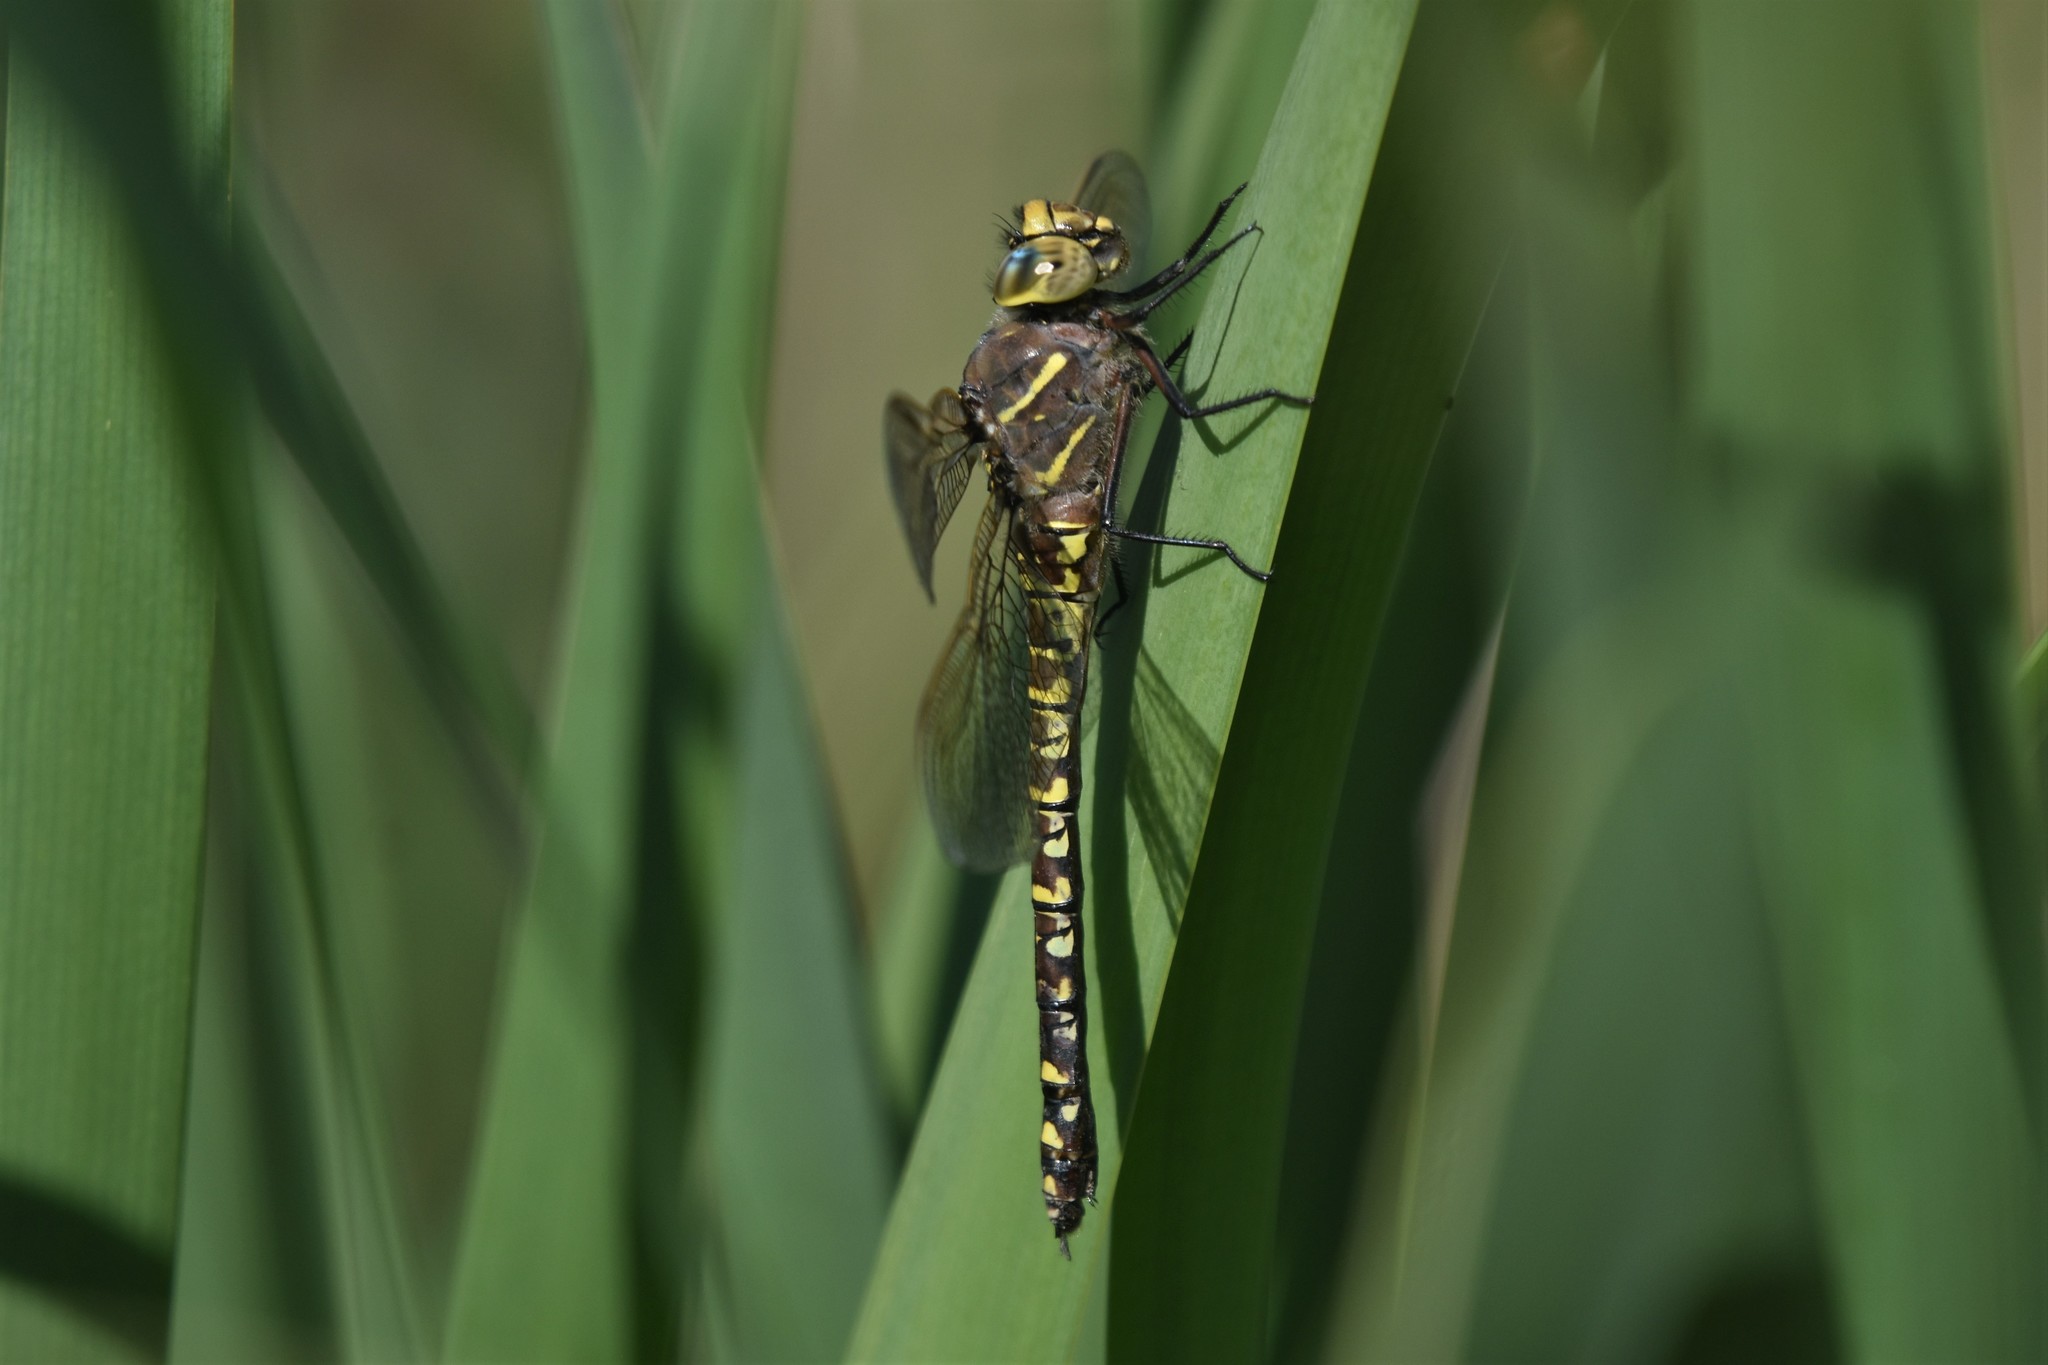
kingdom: Animalia
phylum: Arthropoda
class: Insecta
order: Odonata
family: Aeshnidae
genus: Aeshna
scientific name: Aeshna interrupta
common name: Variable darner
